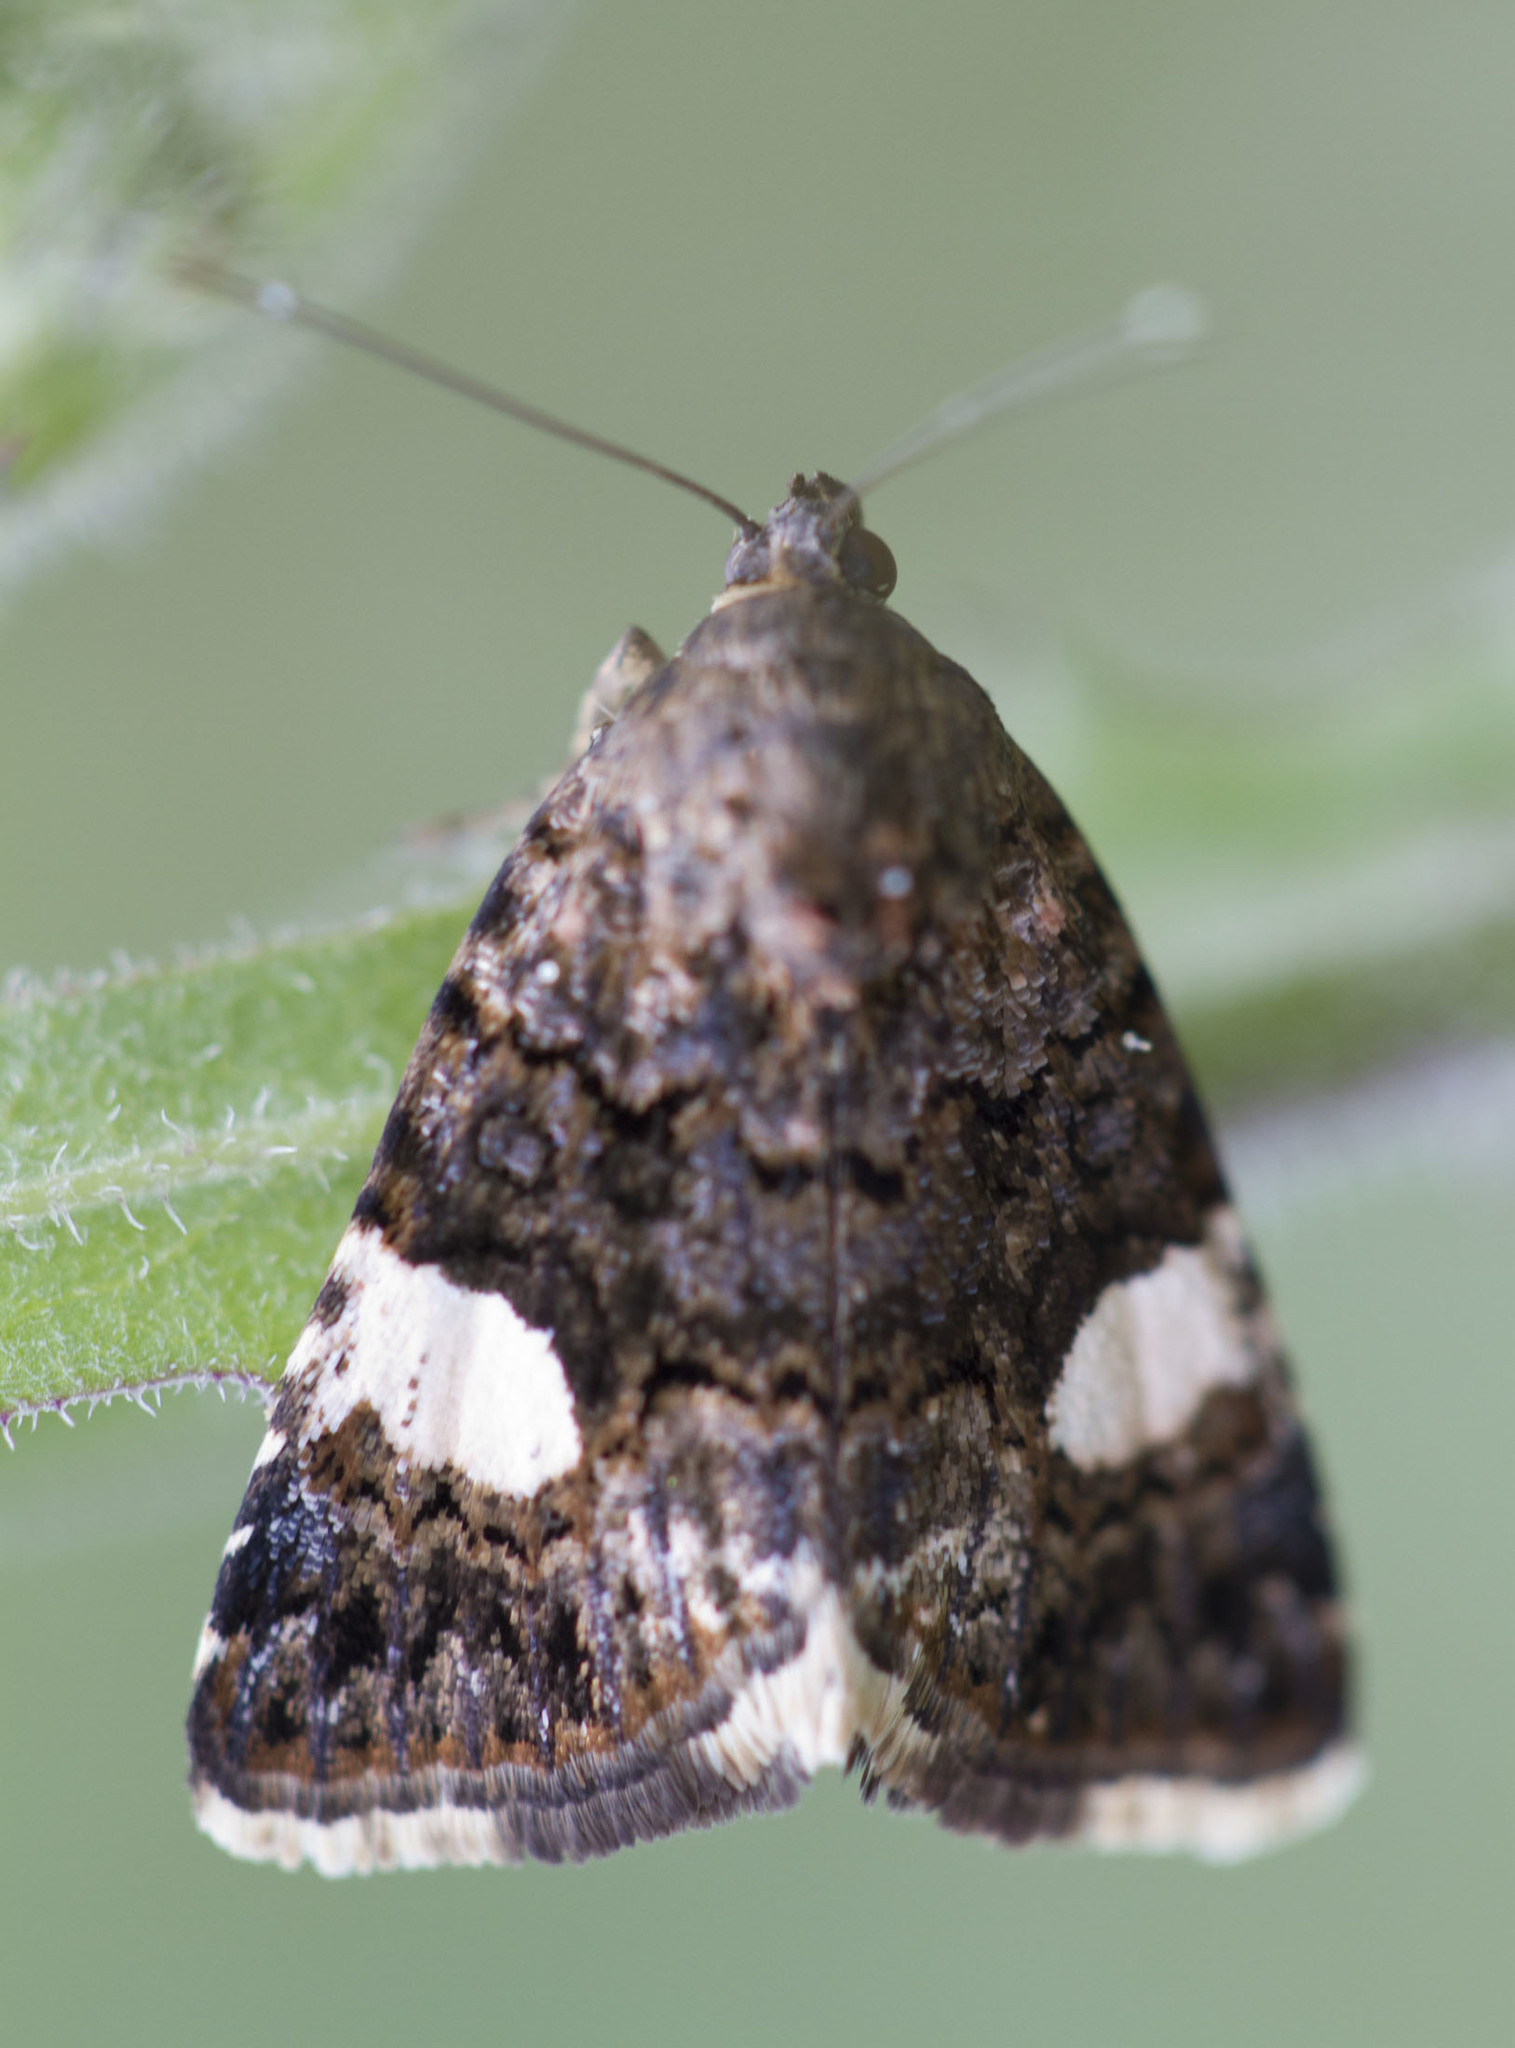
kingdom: Animalia
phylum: Arthropoda
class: Insecta
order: Lepidoptera
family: Erebidae
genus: Tyta
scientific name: Tyta luctuosa
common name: Four-spotted
